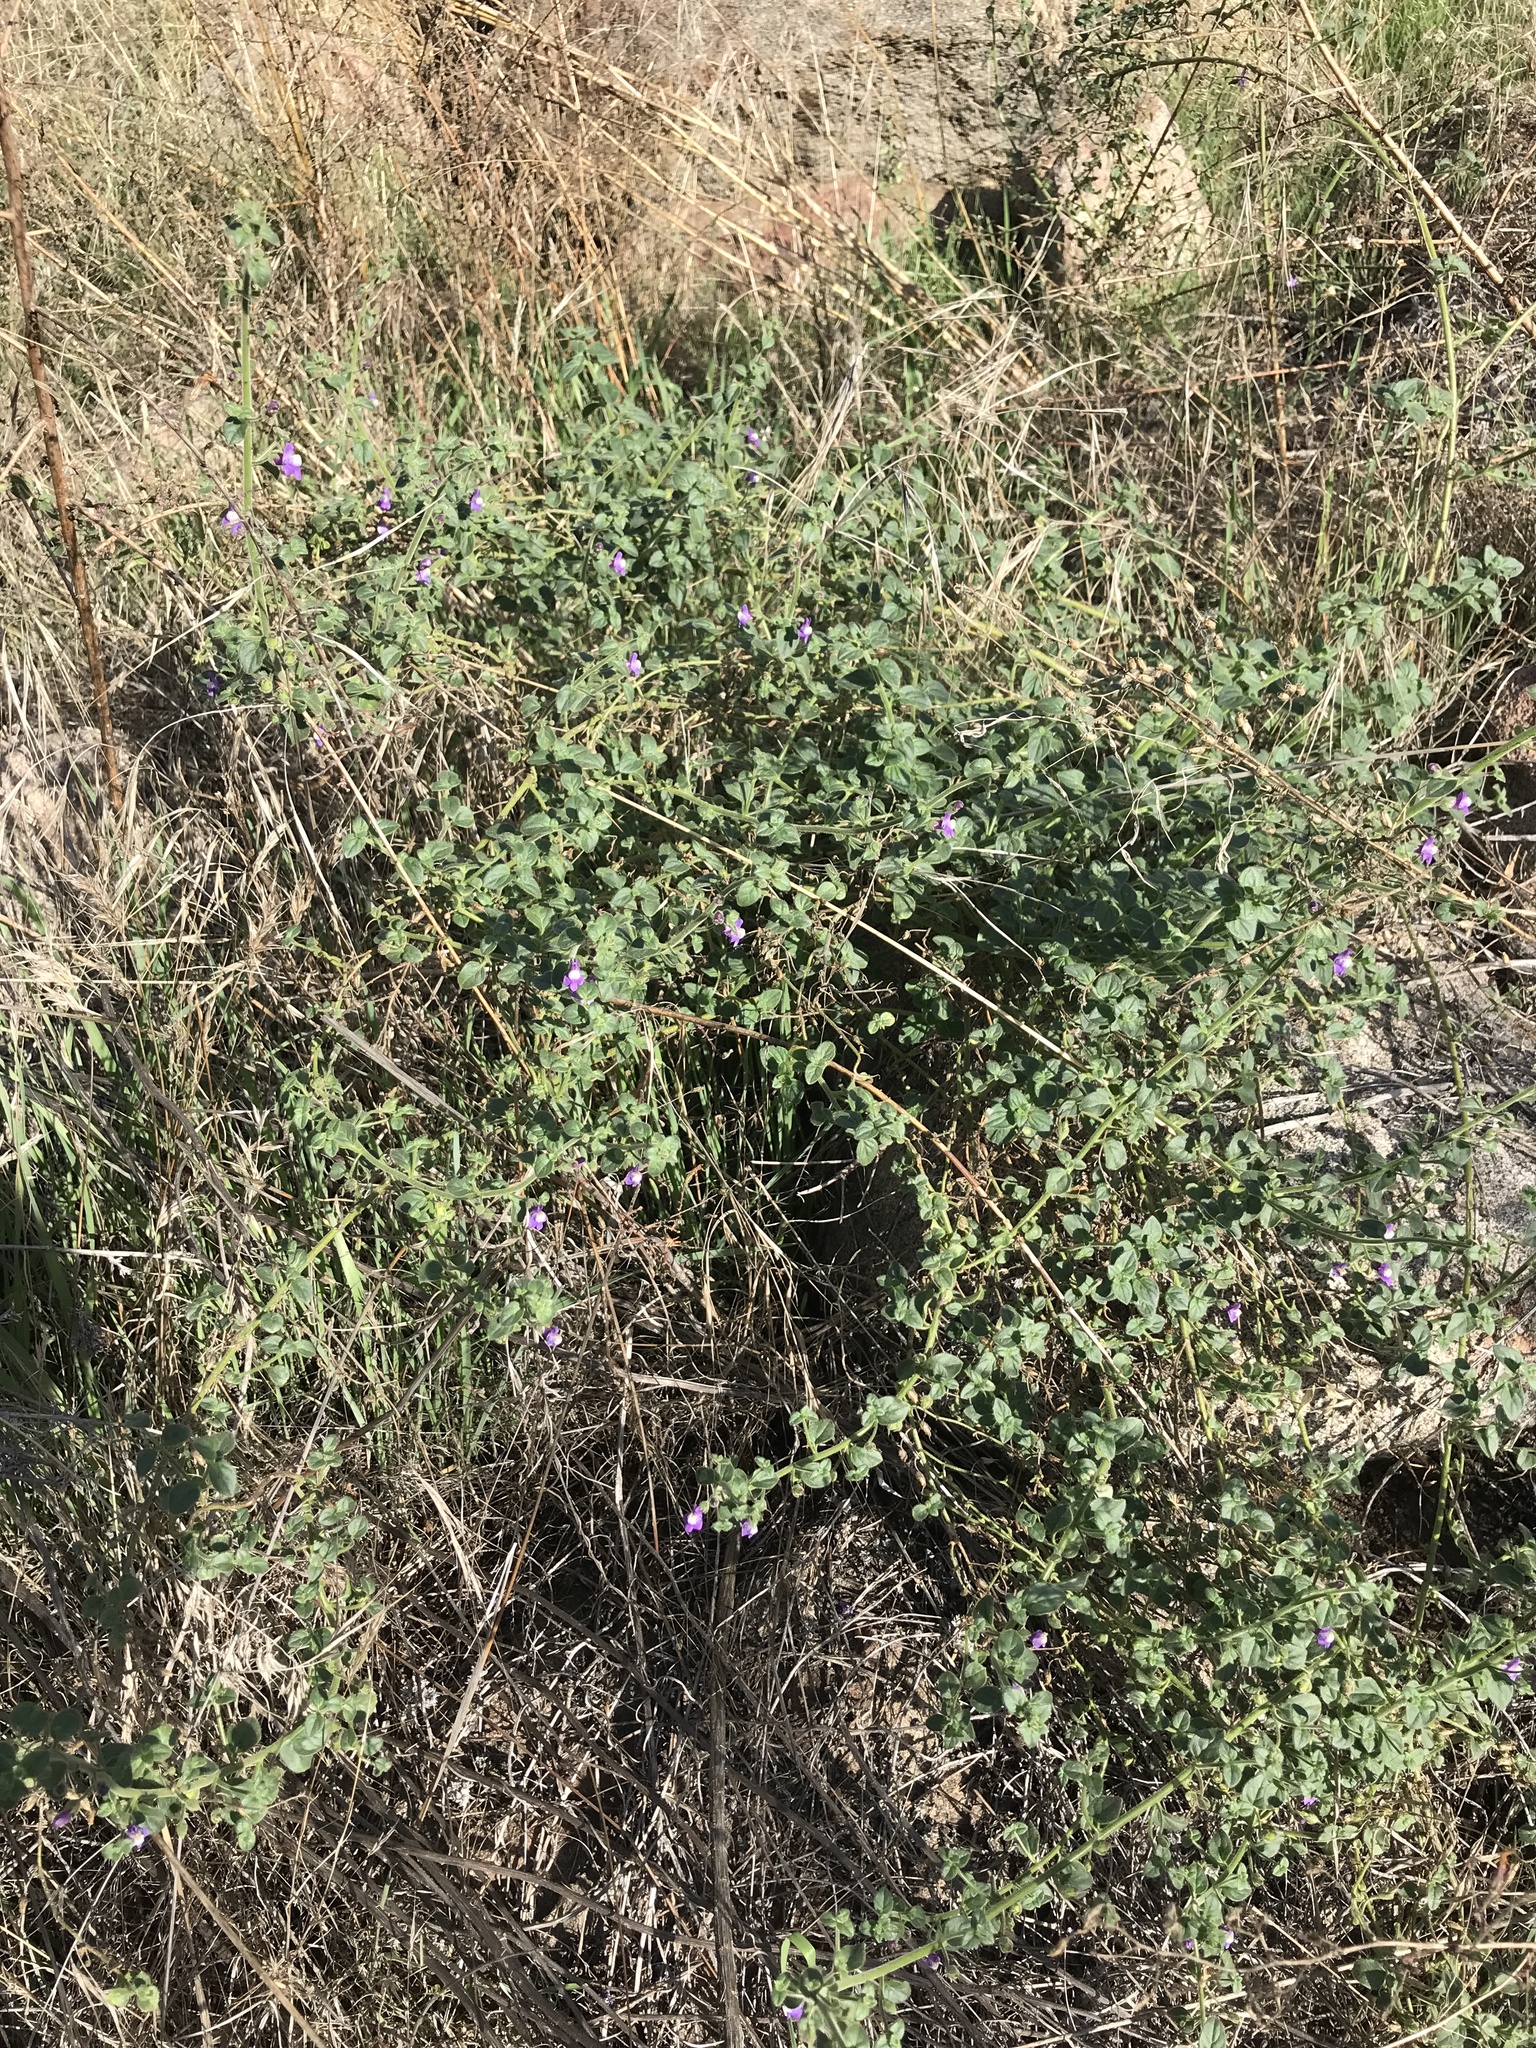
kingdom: Plantae
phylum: Tracheophyta
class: Magnoliopsida
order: Lamiales
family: Plantaginaceae
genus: Sairocarpus
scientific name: Sairocarpus nuttallianus
